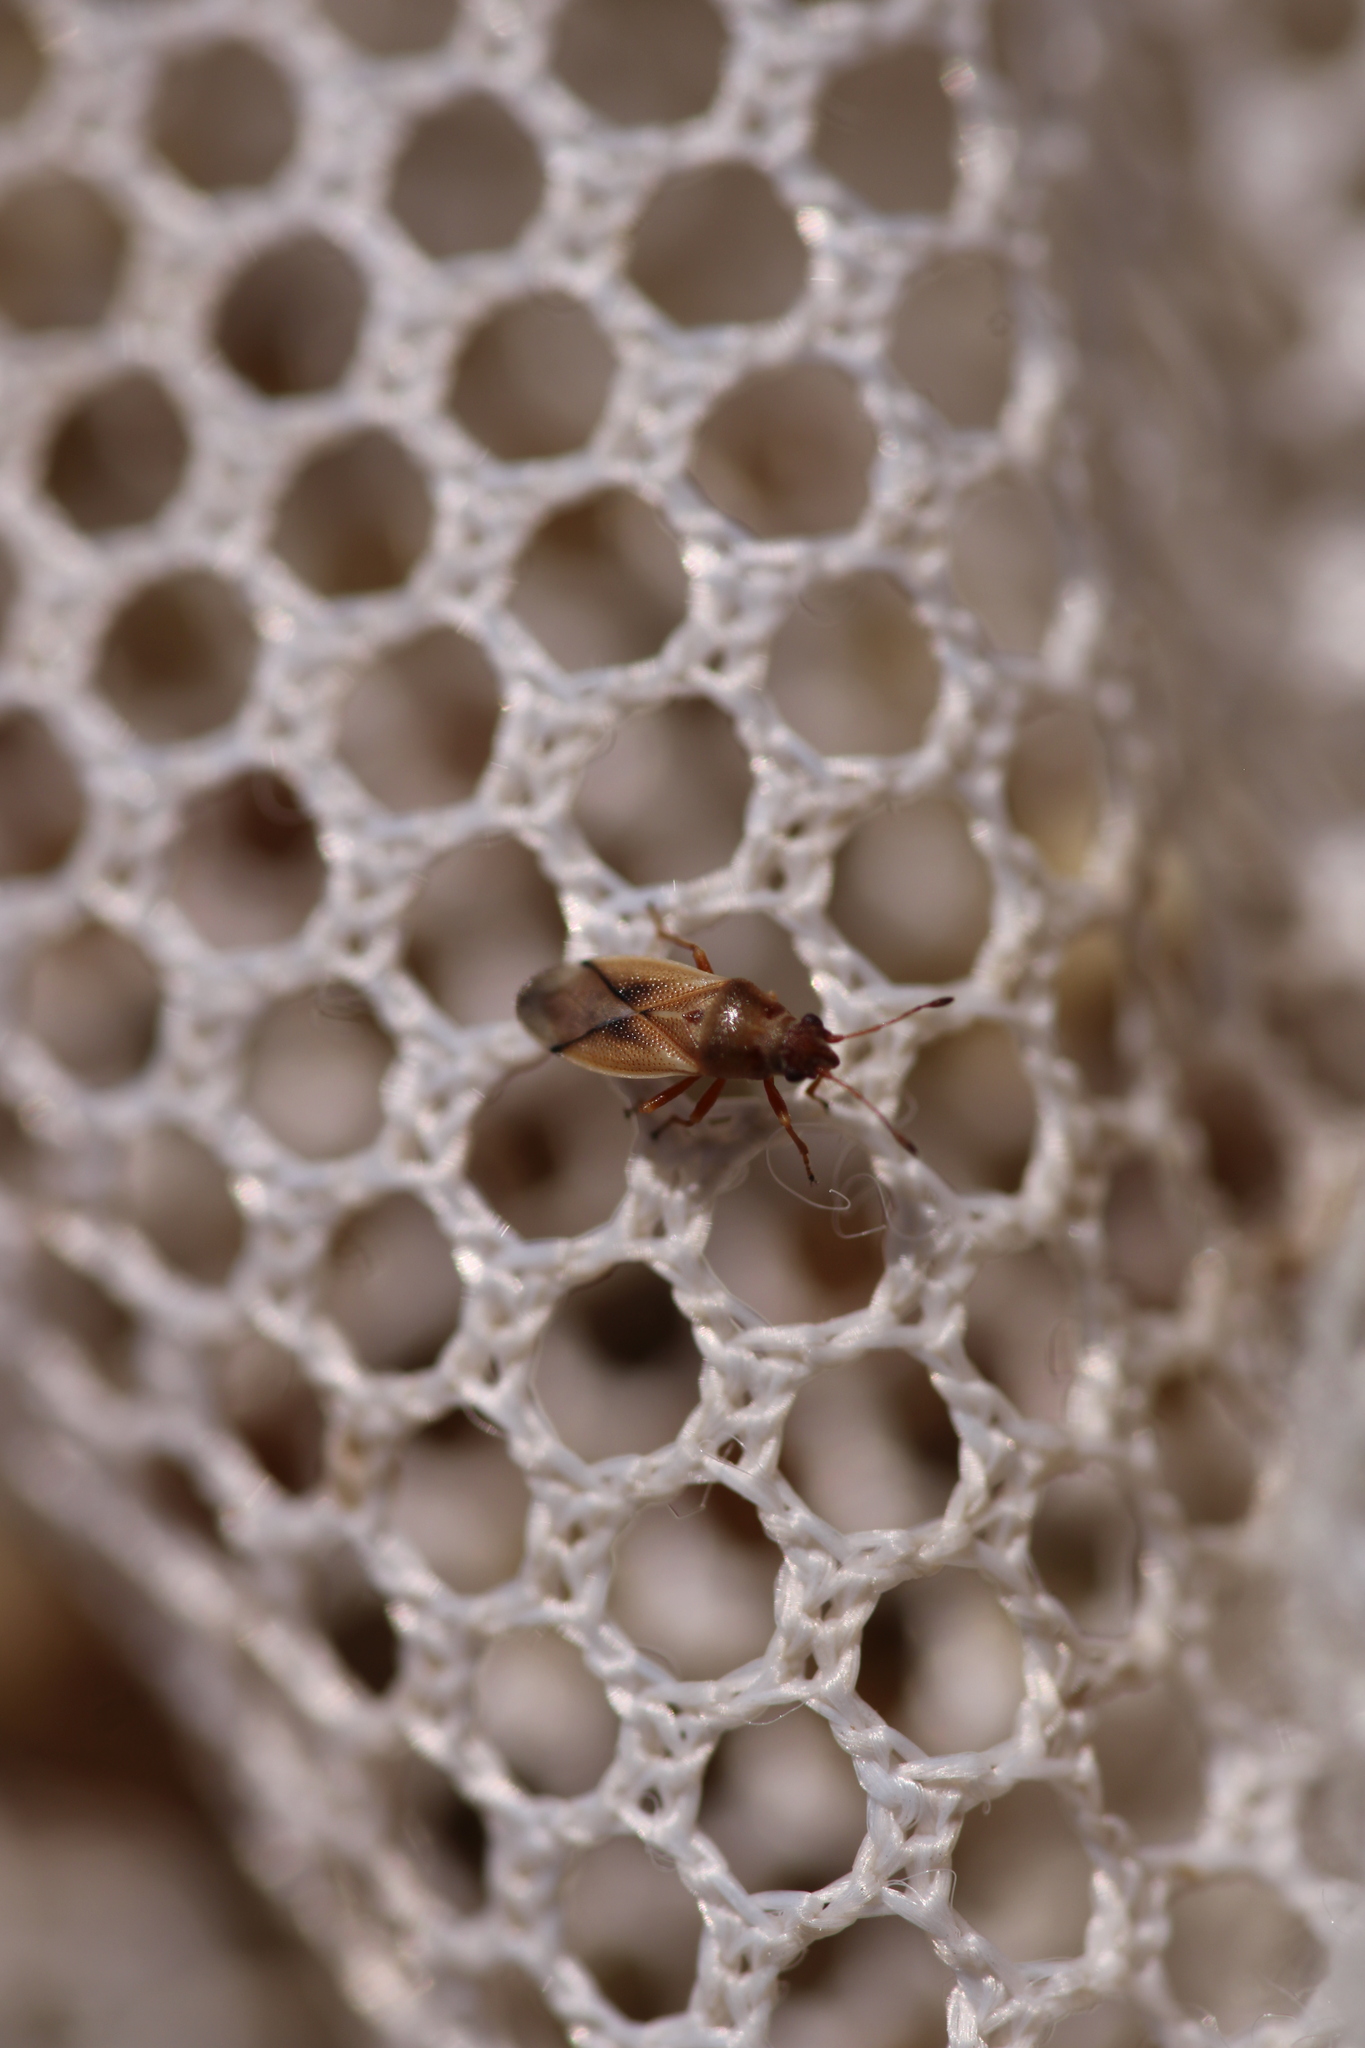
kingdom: Animalia
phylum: Arthropoda
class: Insecta
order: Hemiptera
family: Cymidae
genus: Cymus
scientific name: Cymus melanocephalus
